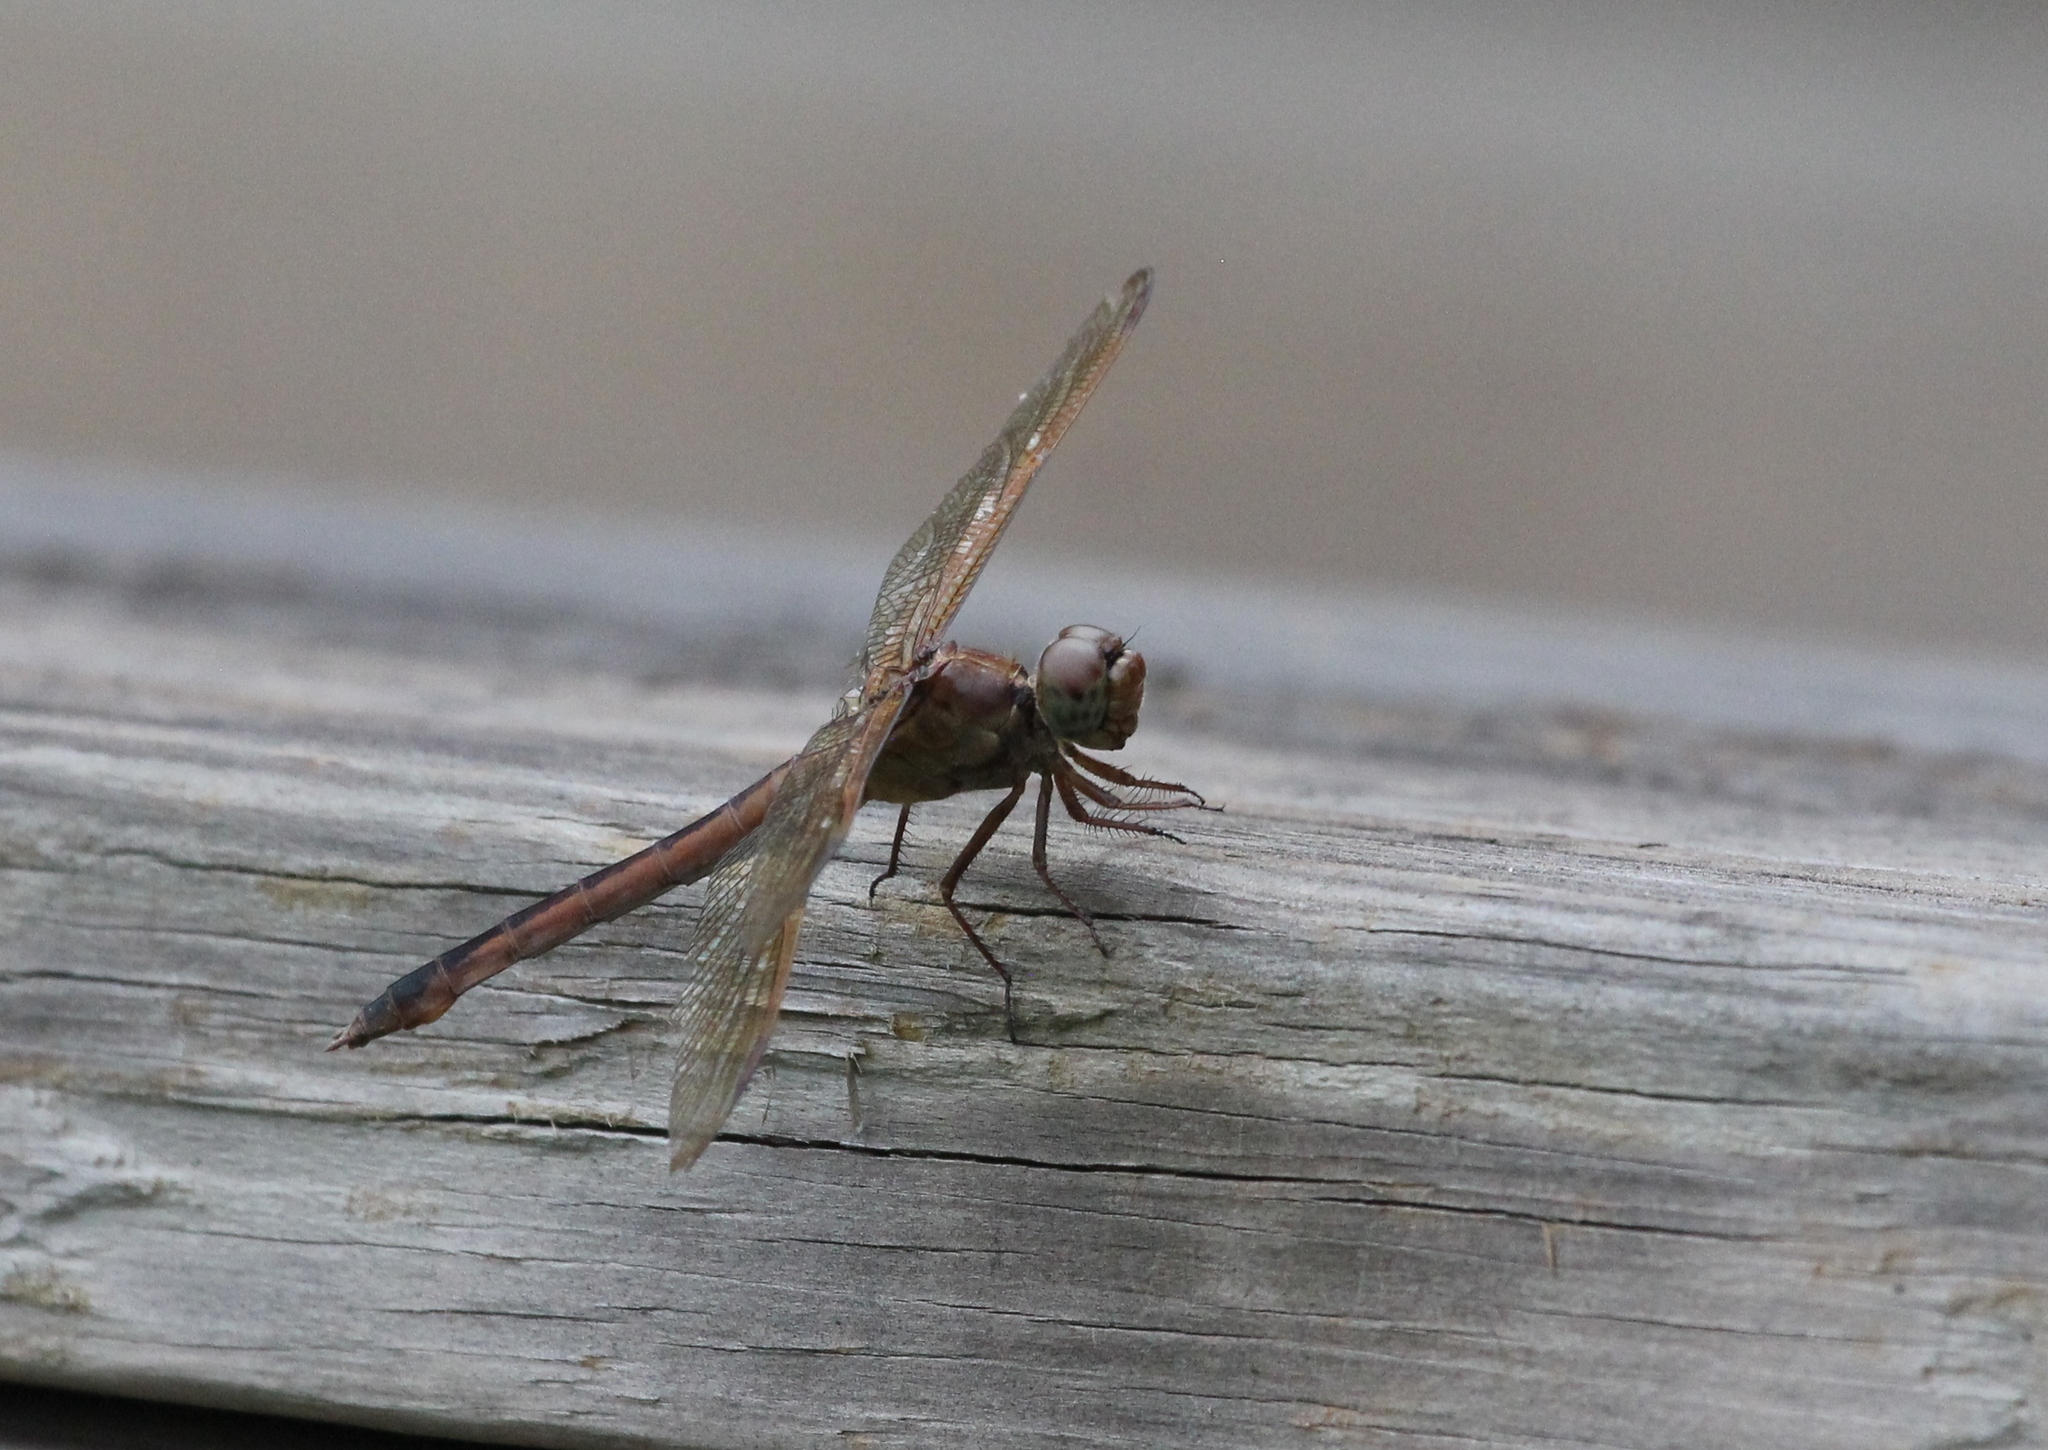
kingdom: Animalia
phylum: Arthropoda
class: Insecta
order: Odonata
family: Libellulidae
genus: Libellula
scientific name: Libellula needhami
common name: Needham's skimmer
